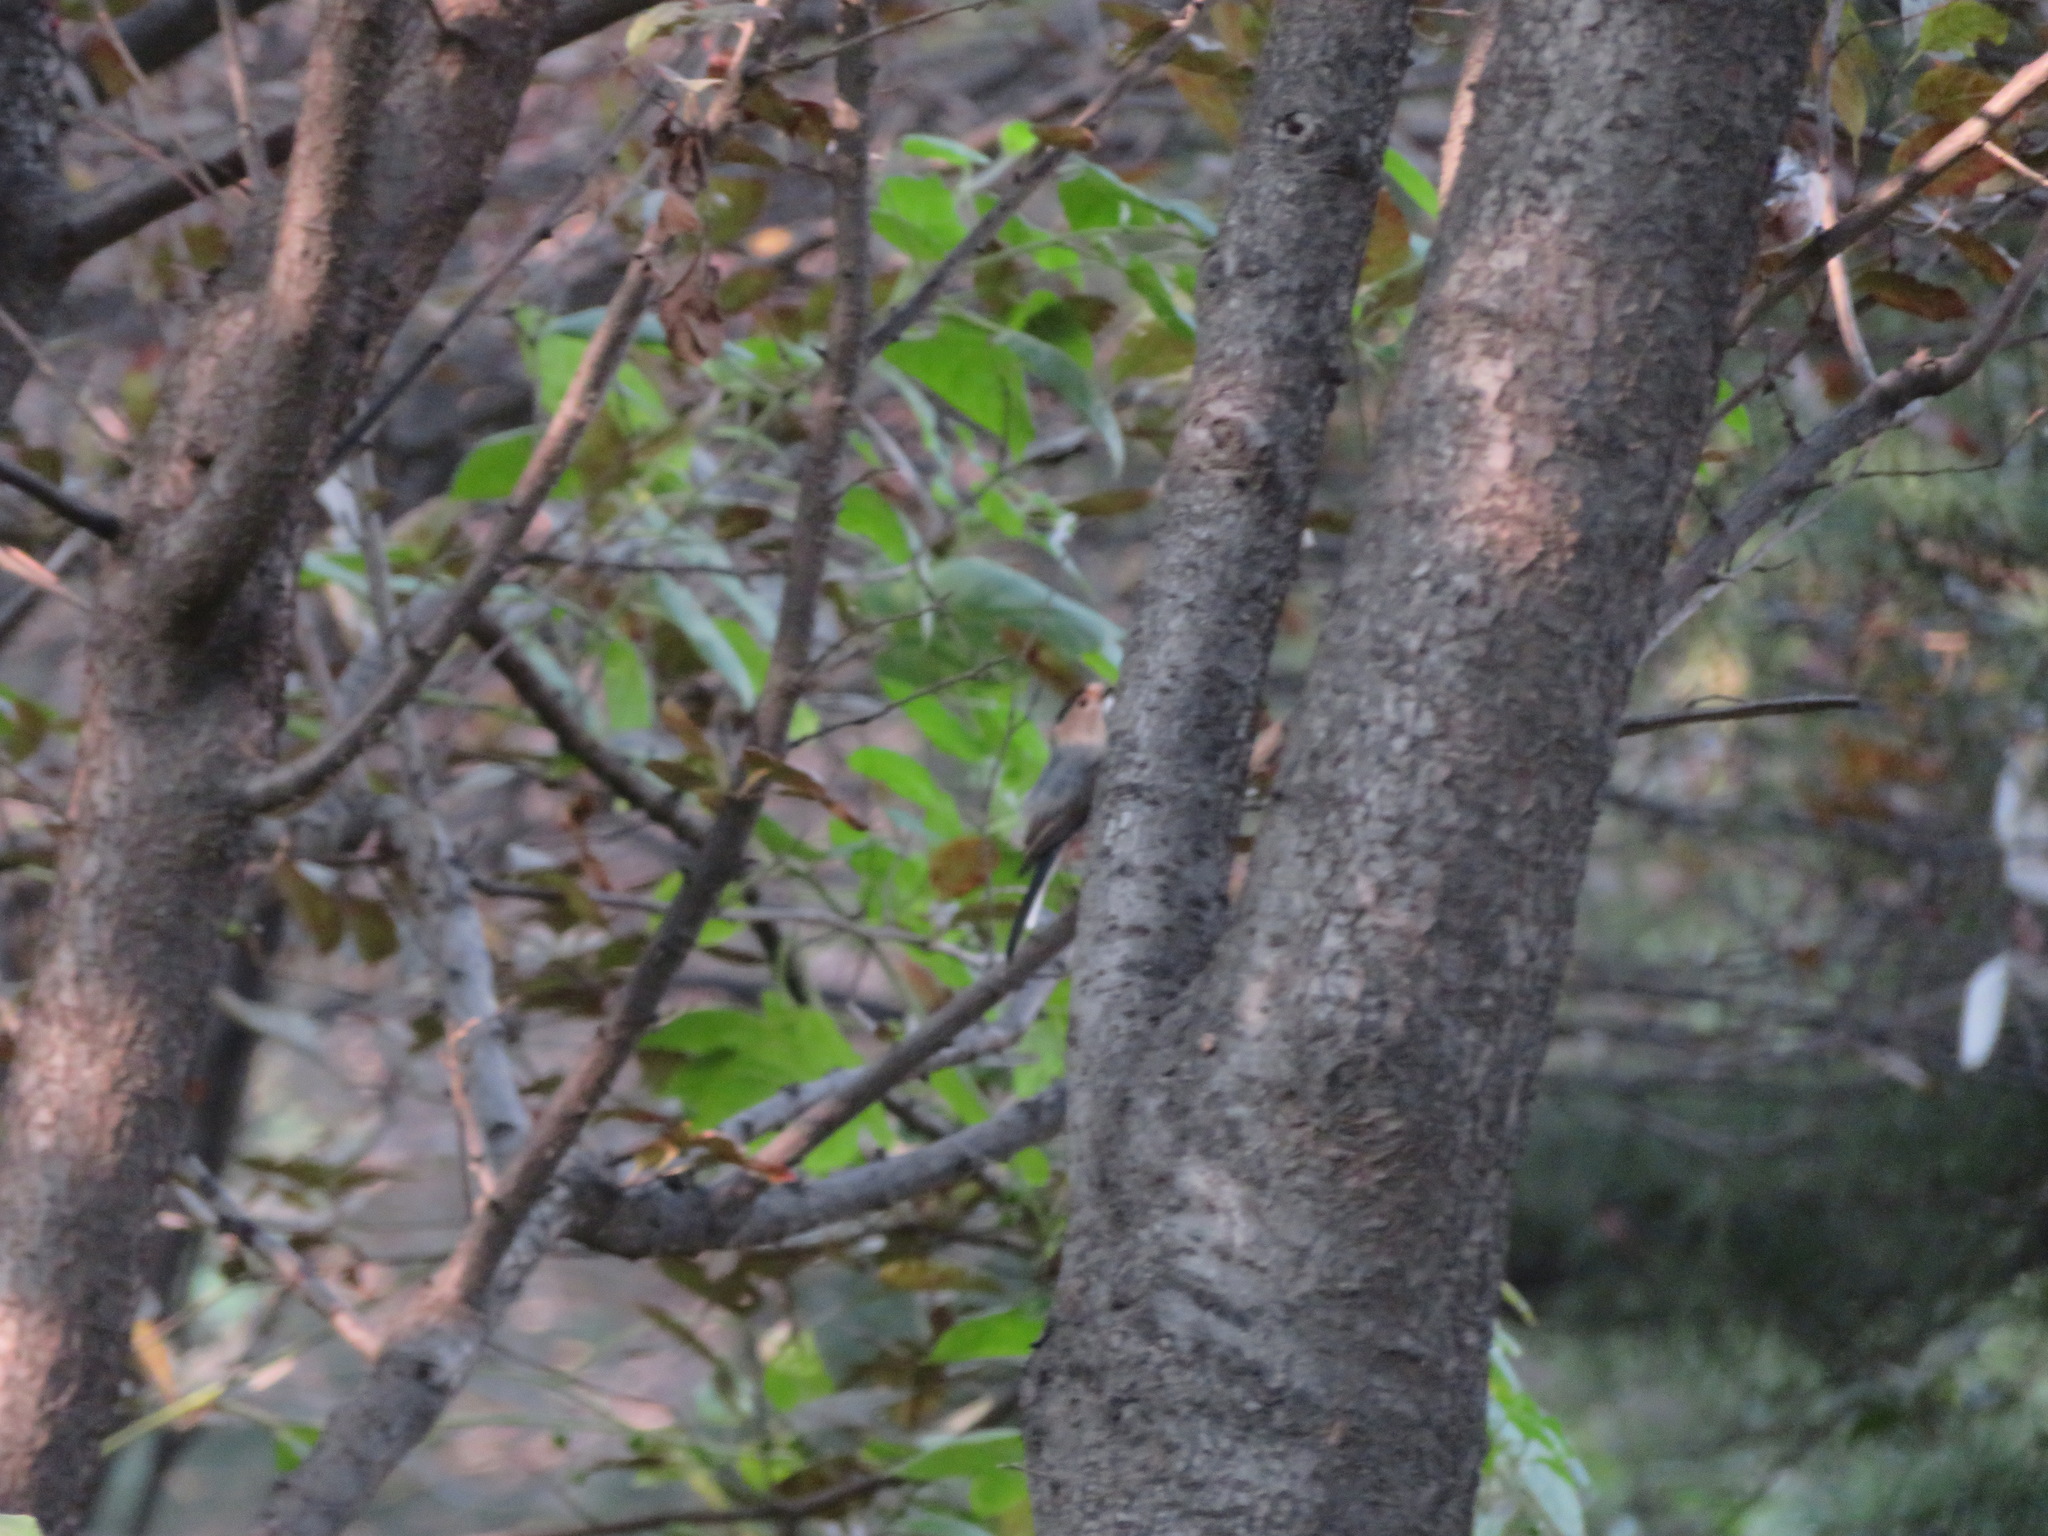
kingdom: Animalia
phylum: Chordata
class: Aves
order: Passeriformes
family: Aegithalidae
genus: Aegithalos
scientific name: Aegithalos glaucogularis
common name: Silver-throated bushtit
